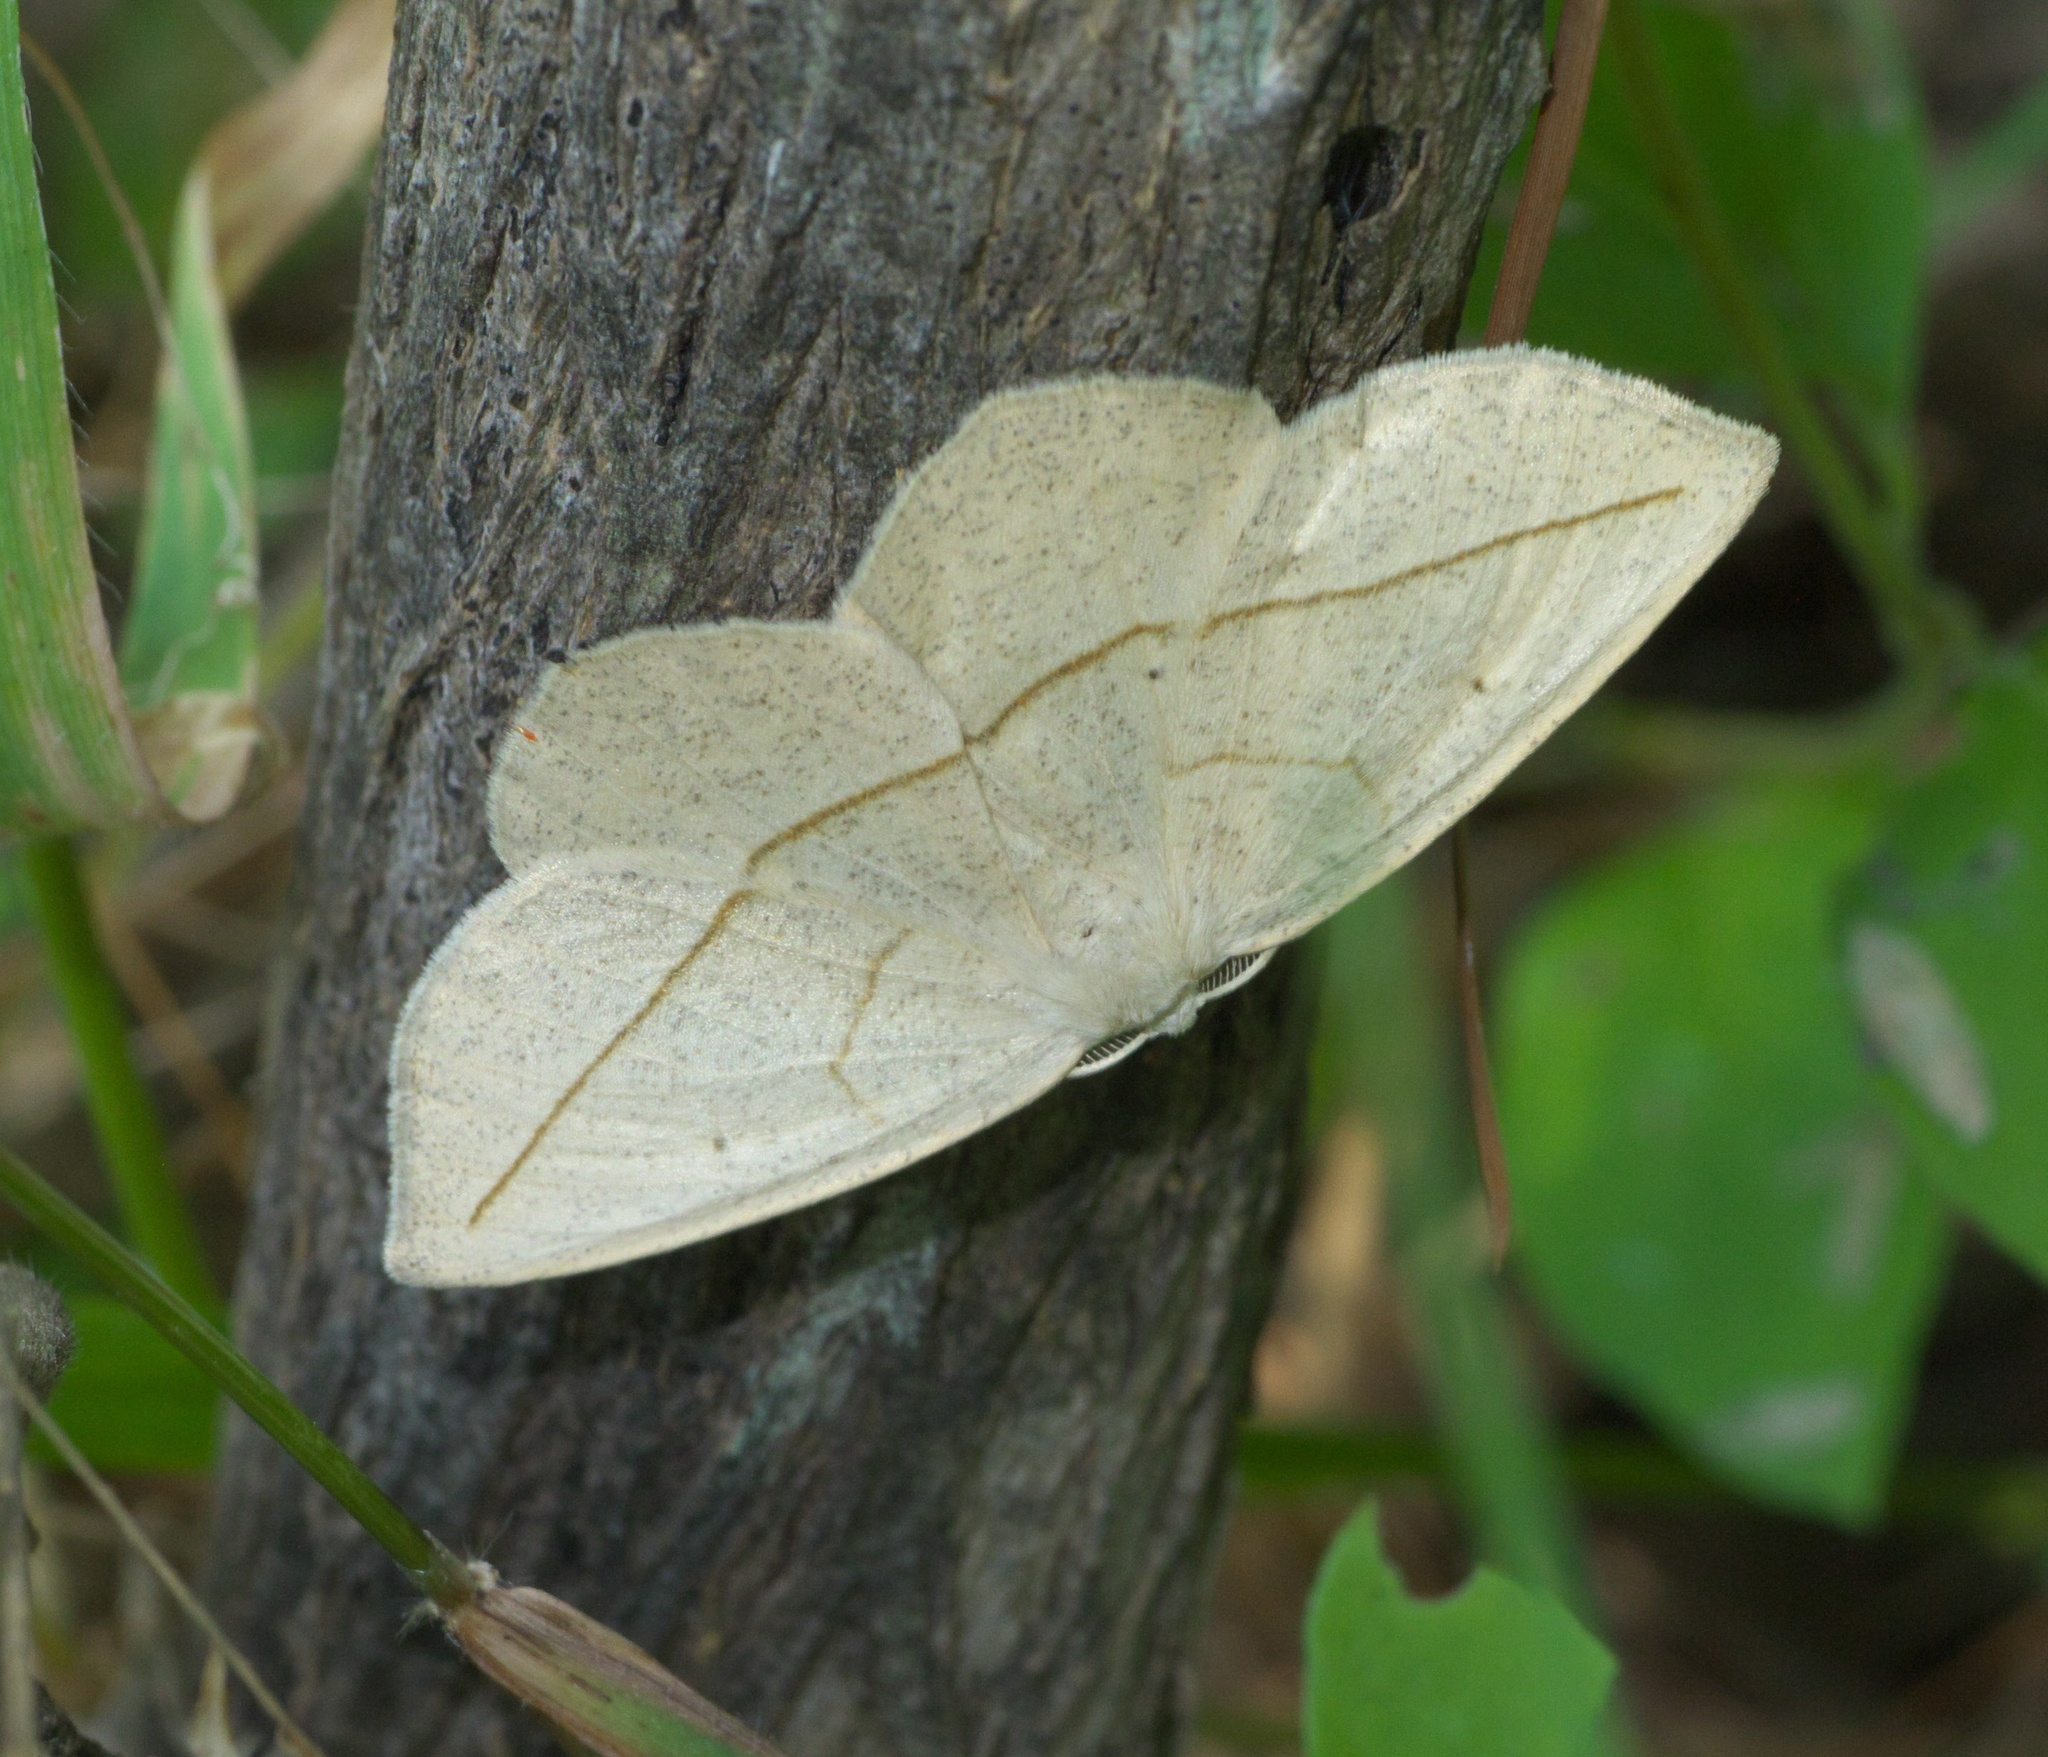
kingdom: Animalia
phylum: Arthropoda
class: Insecta
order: Lepidoptera
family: Geometridae
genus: Eusarca
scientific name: Eusarca confusaria
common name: Confused eusarca
